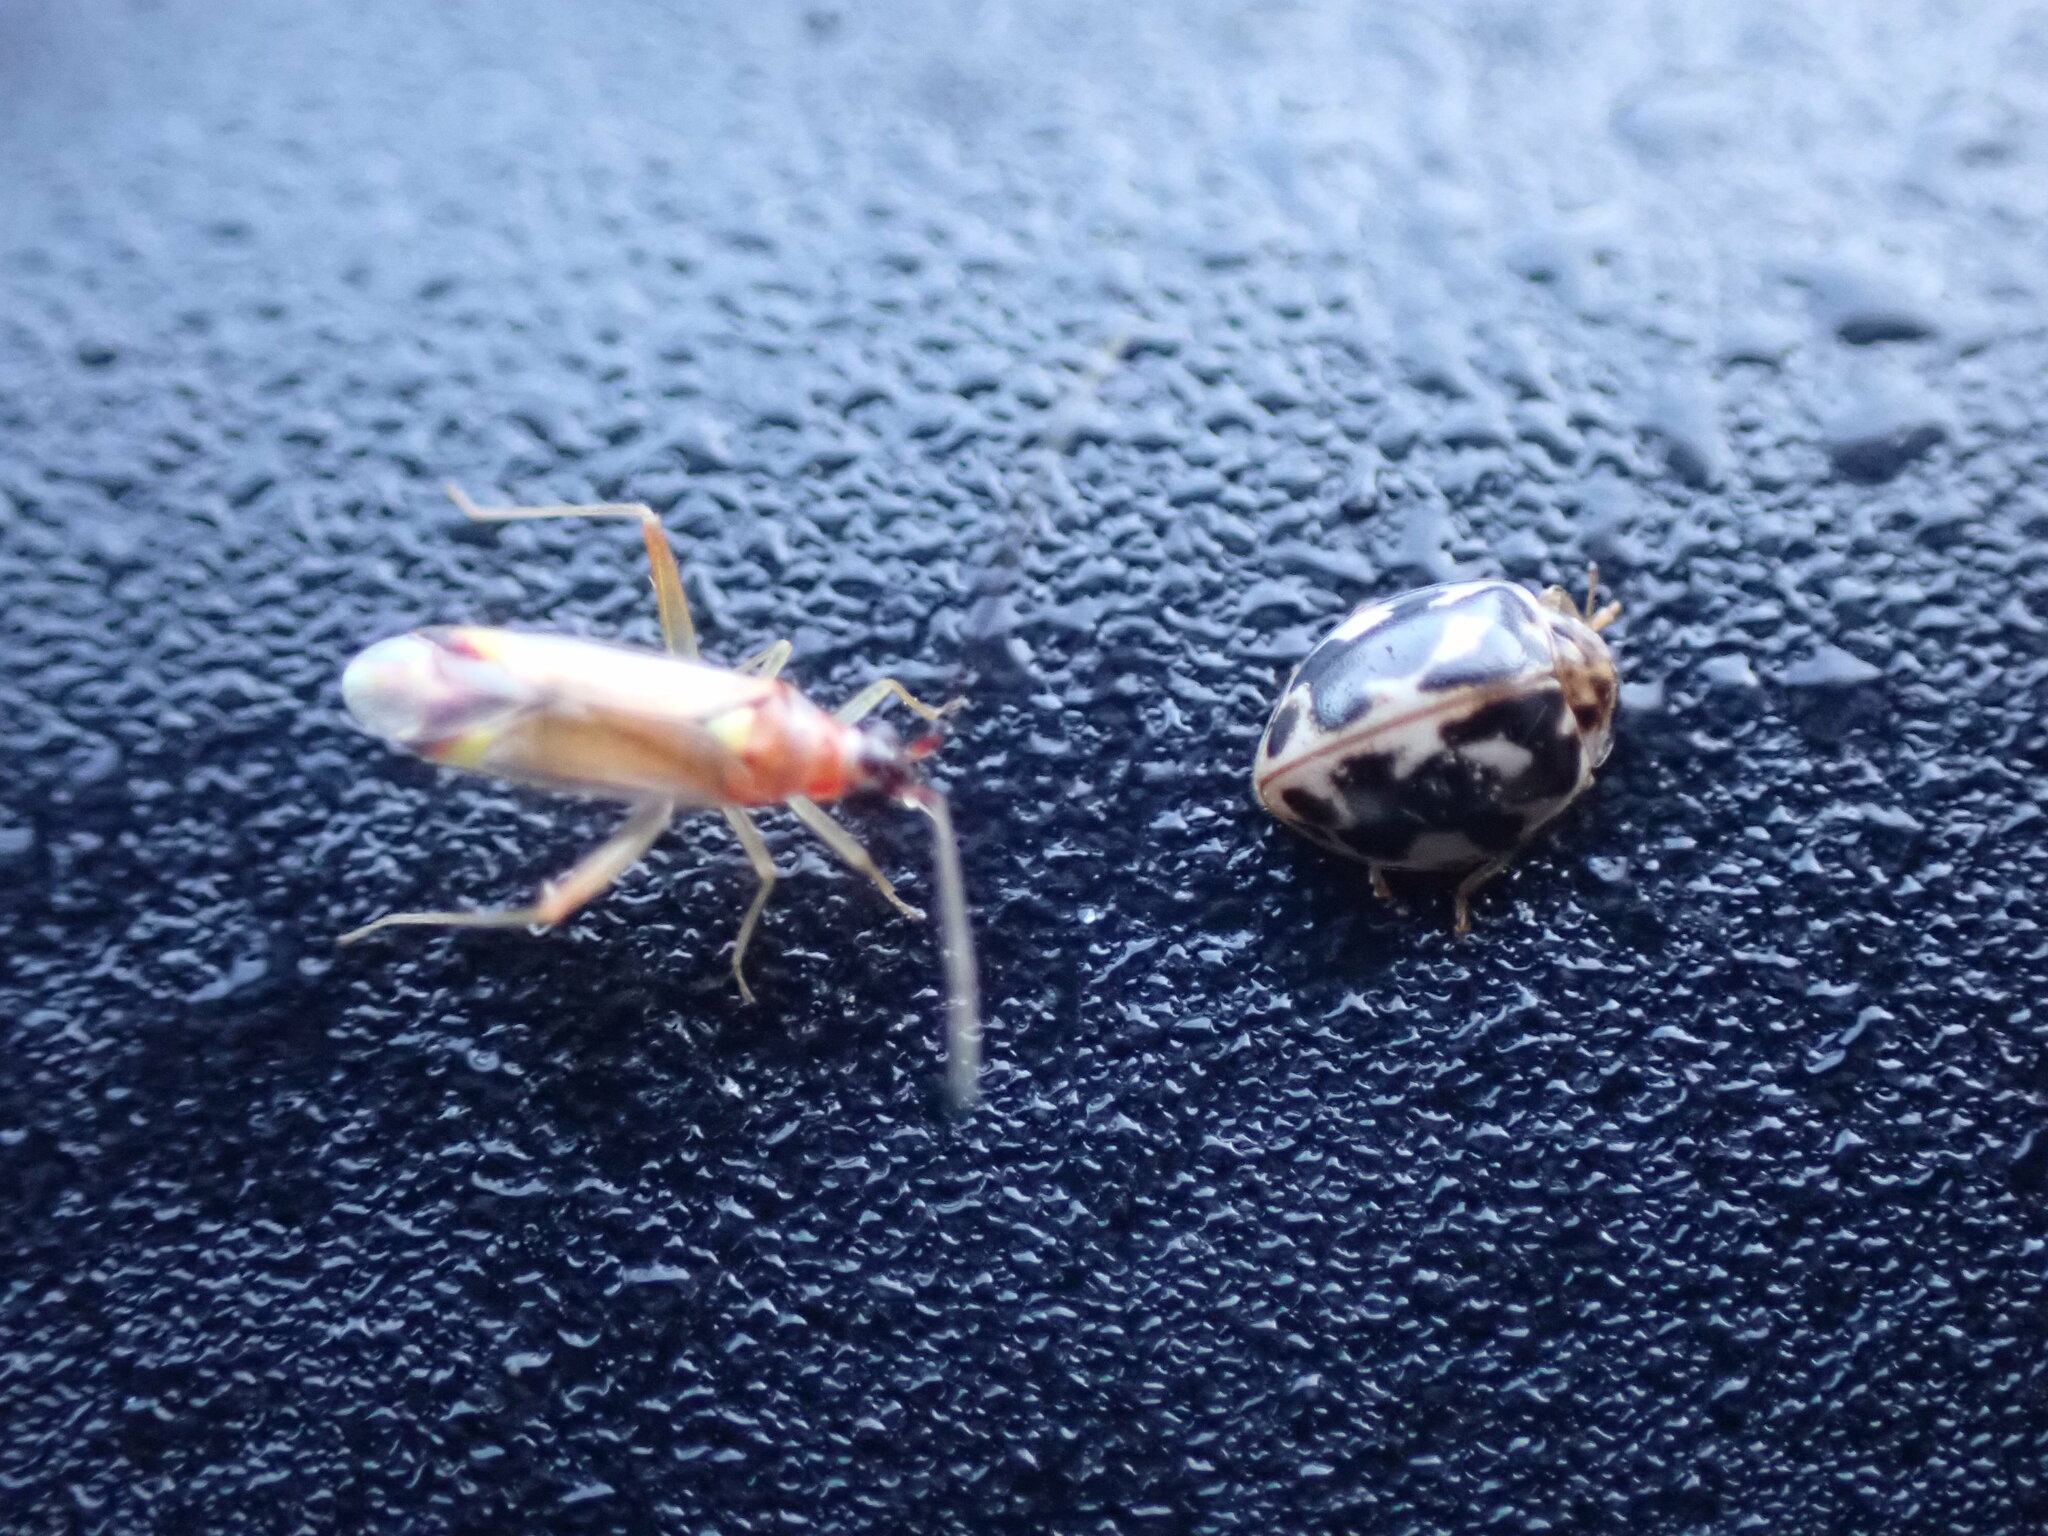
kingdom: Animalia
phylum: Arthropoda
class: Insecta
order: Coleoptera
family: Coccinellidae
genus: Psyllobora
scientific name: Psyllobora borealis
